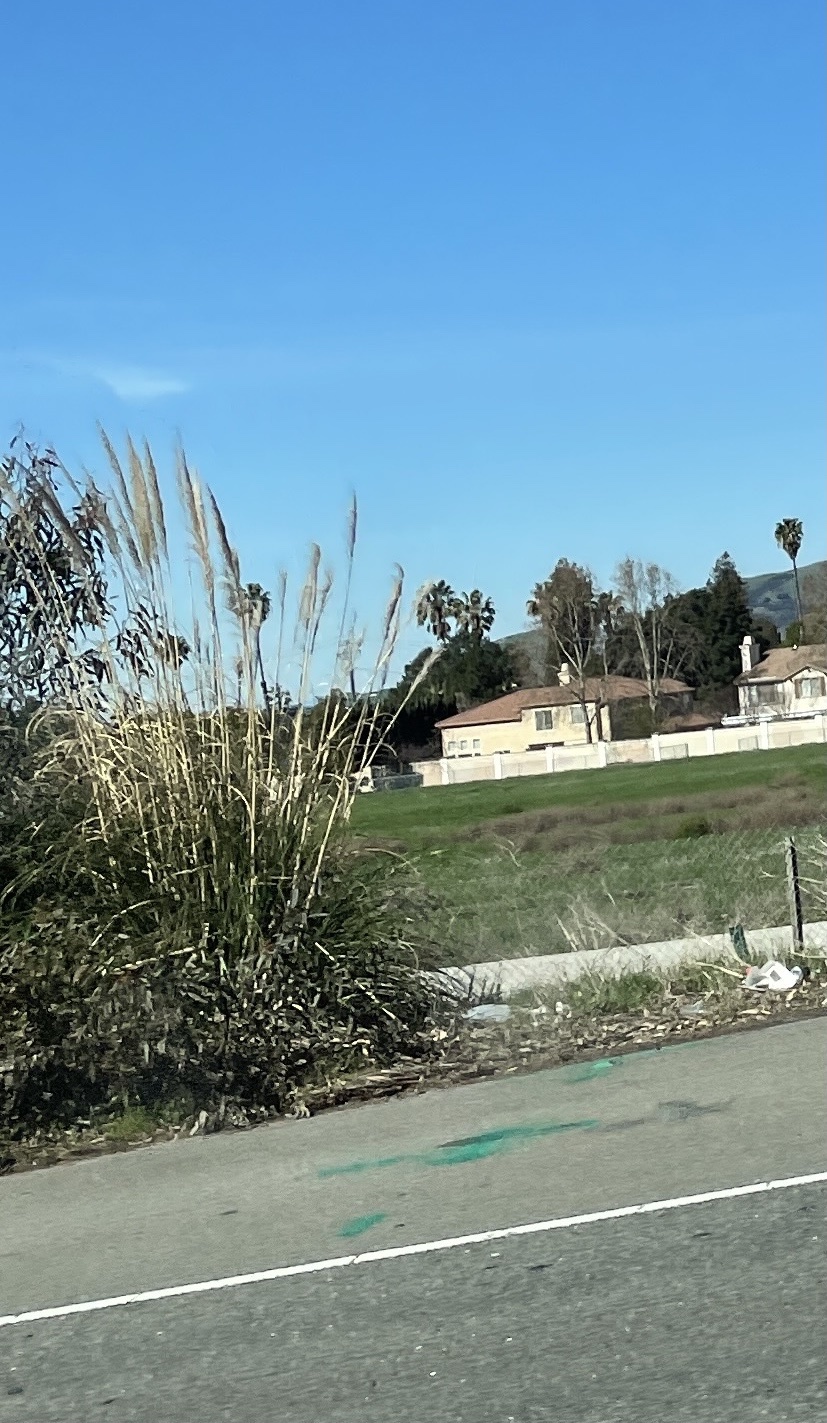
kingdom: Plantae
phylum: Tracheophyta
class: Liliopsida
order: Poales
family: Poaceae
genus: Cortaderia
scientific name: Cortaderia selloana
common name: Uruguayan pampas grass
